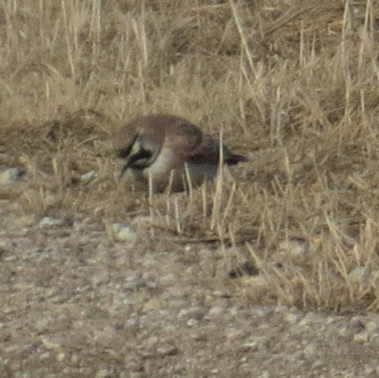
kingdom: Animalia
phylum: Chordata
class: Aves
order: Passeriformes
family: Alaudidae
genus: Eremophila
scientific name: Eremophila alpestris
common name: Horned lark
